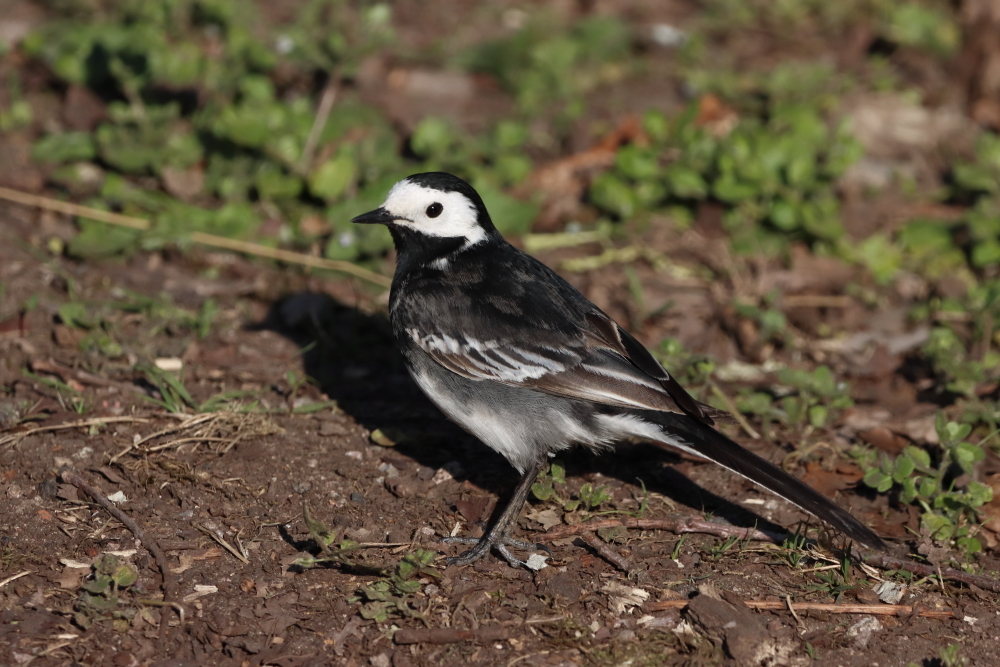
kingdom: Animalia
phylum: Chordata
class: Aves
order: Passeriformes
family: Motacillidae
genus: Motacilla
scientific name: Motacilla alba
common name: White wagtail
